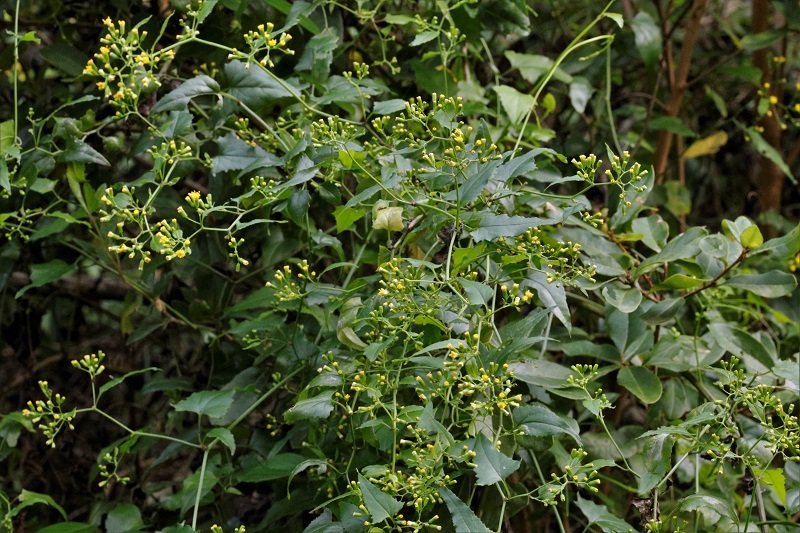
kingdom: Plantae
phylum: Tracheophyta
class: Magnoliopsida
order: Asterales
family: Asteraceae
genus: Senecio
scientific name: Senecio deltoideus
